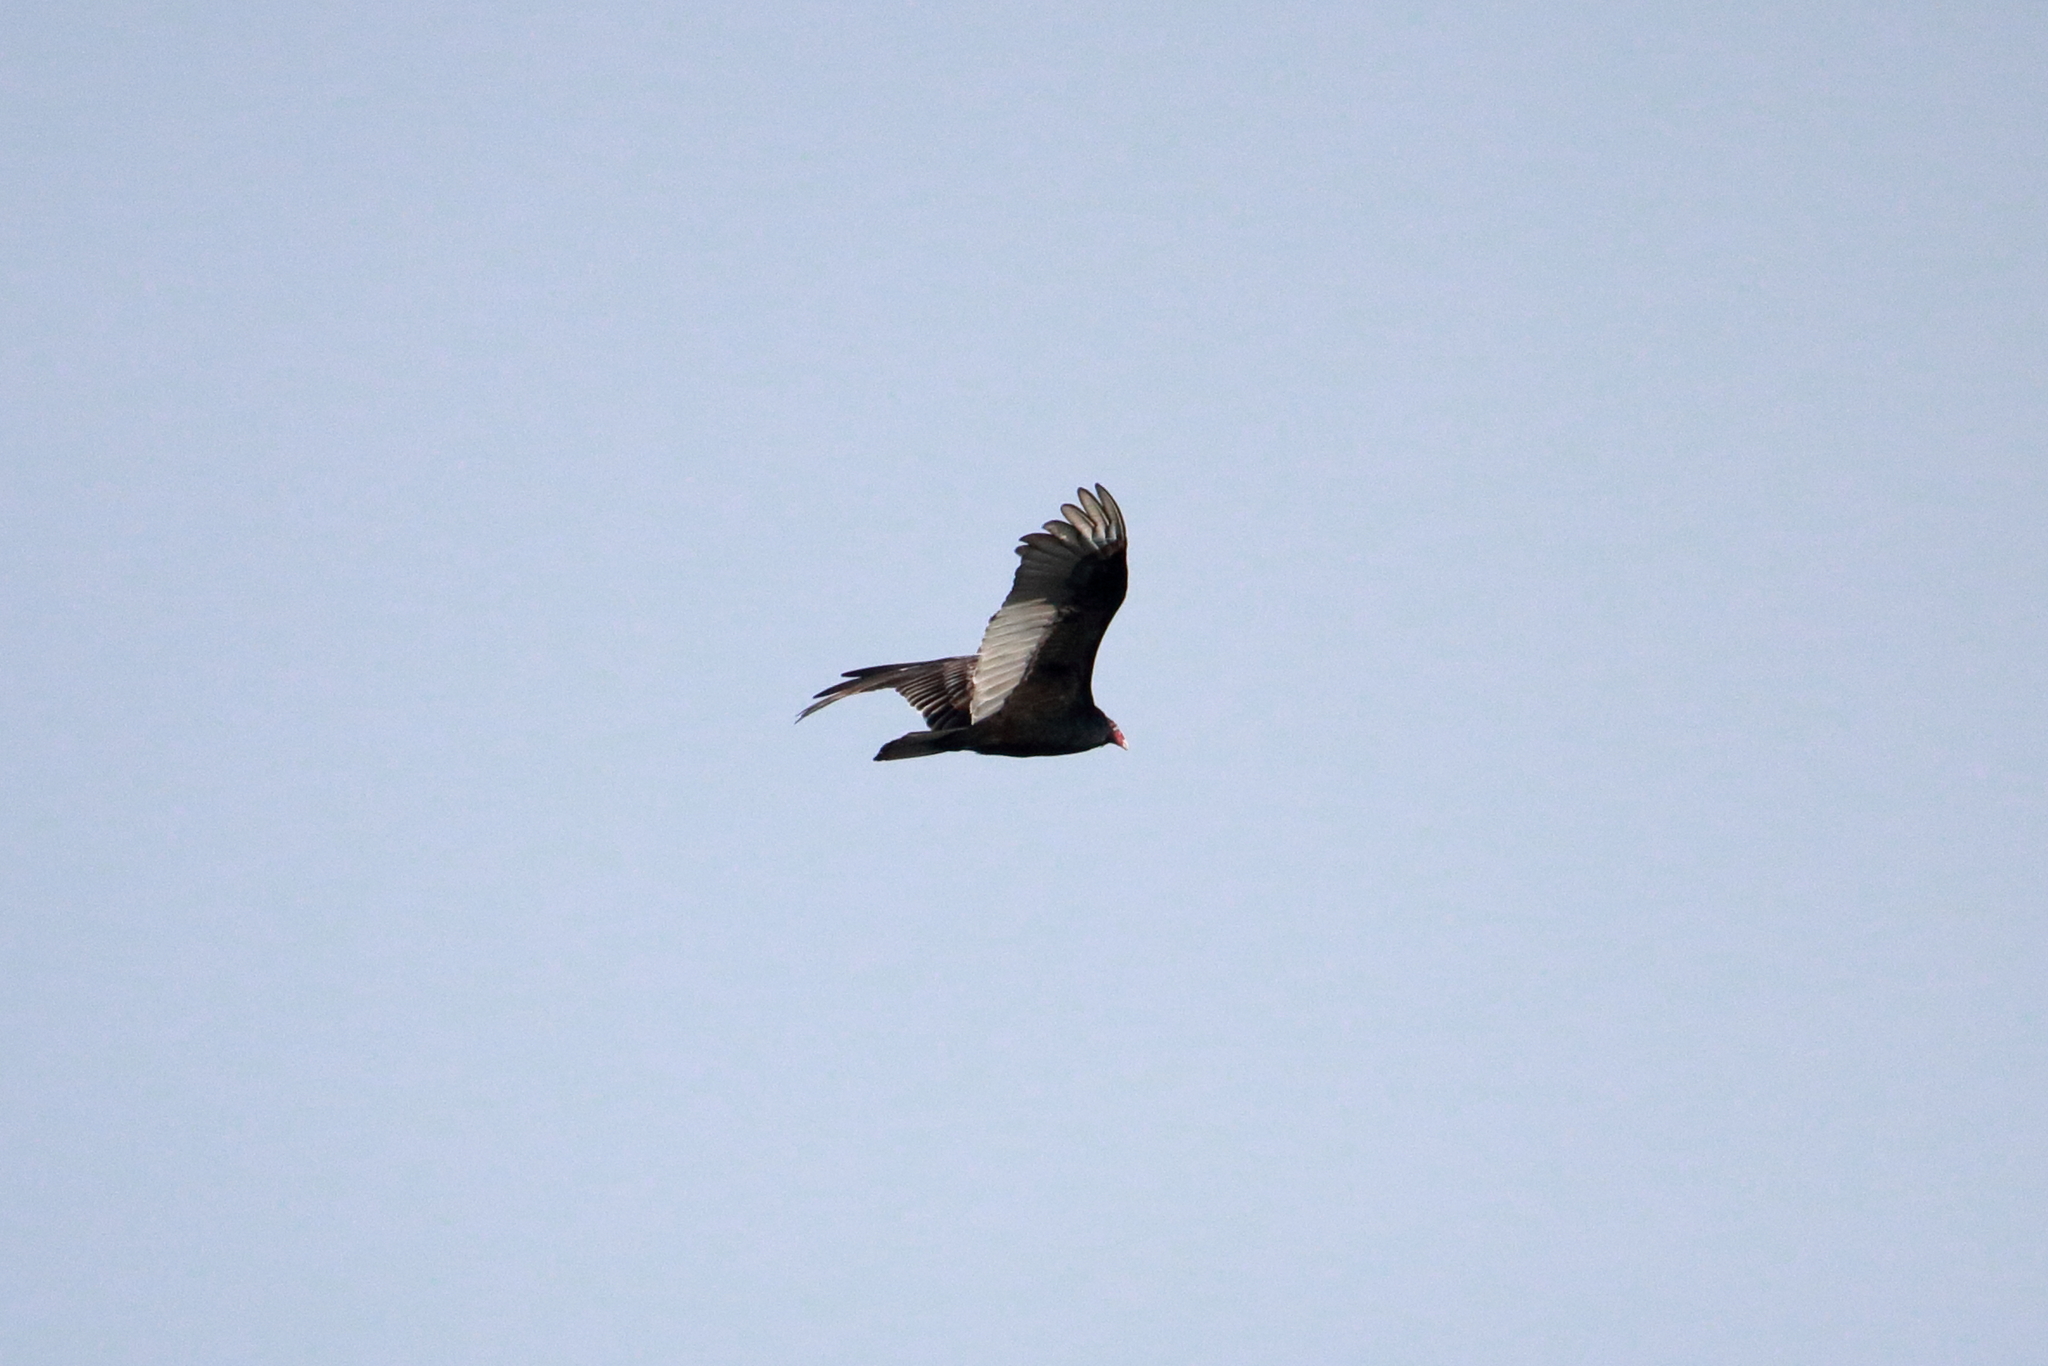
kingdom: Animalia
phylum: Chordata
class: Aves
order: Accipitriformes
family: Cathartidae
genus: Cathartes
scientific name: Cathartes aura
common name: Turkey vulture
